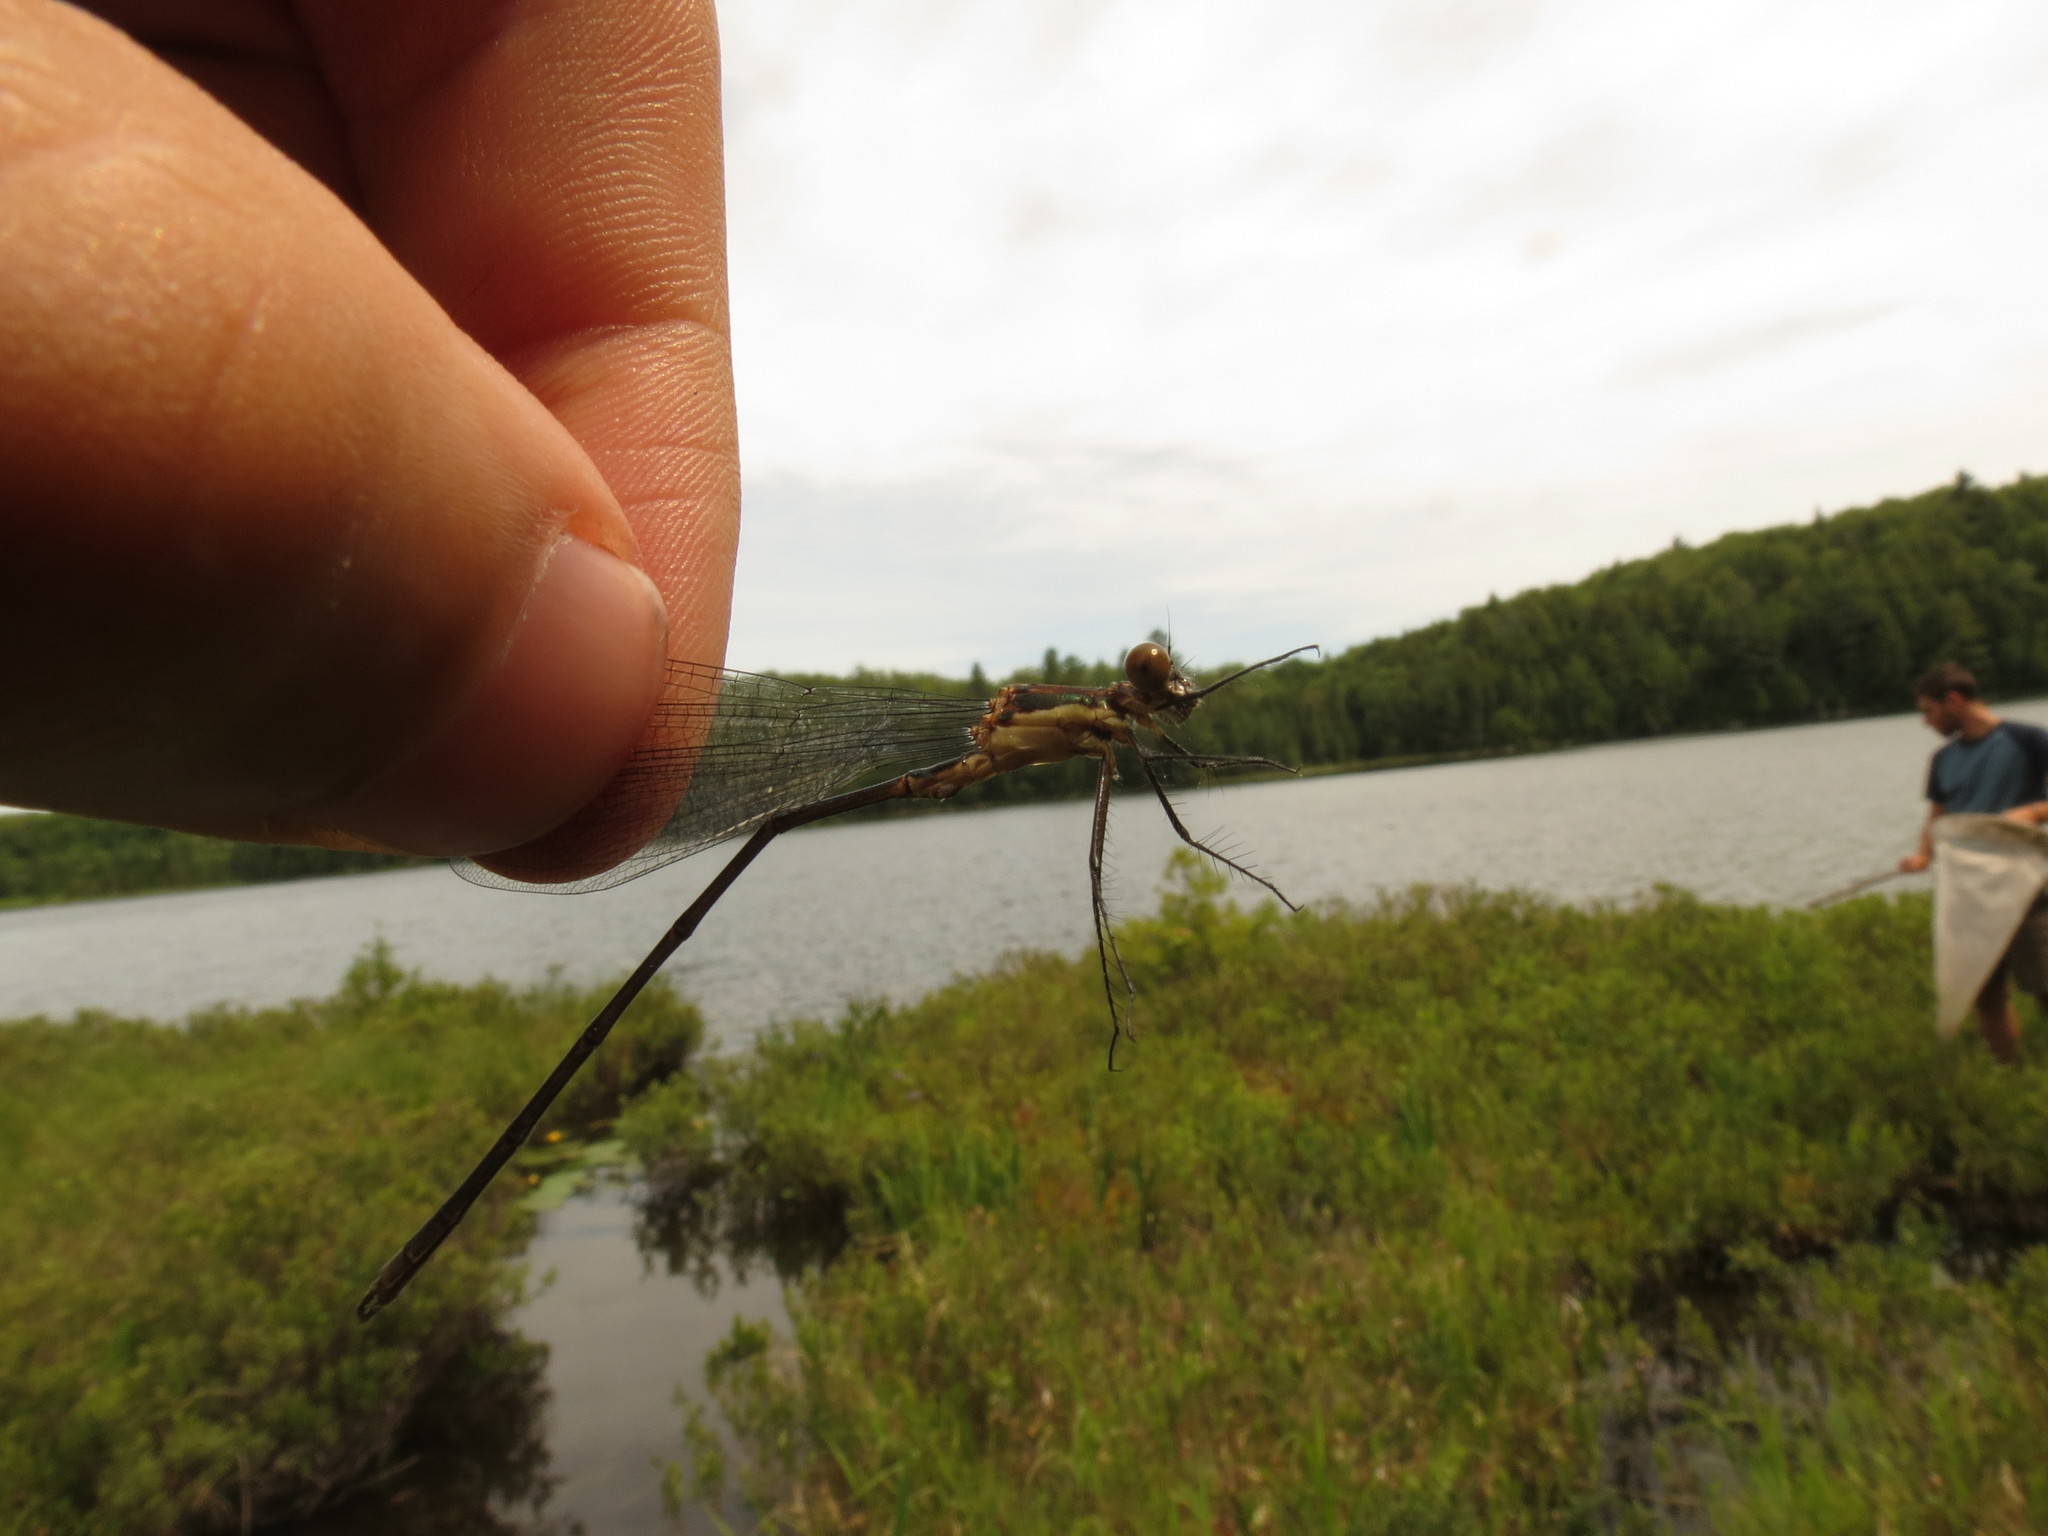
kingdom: Animalia
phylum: Arthropoda
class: Insecta
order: Odonata
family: Lestidae
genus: Lestes
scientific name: Lestes vigilax
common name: Swamp spreadwing
